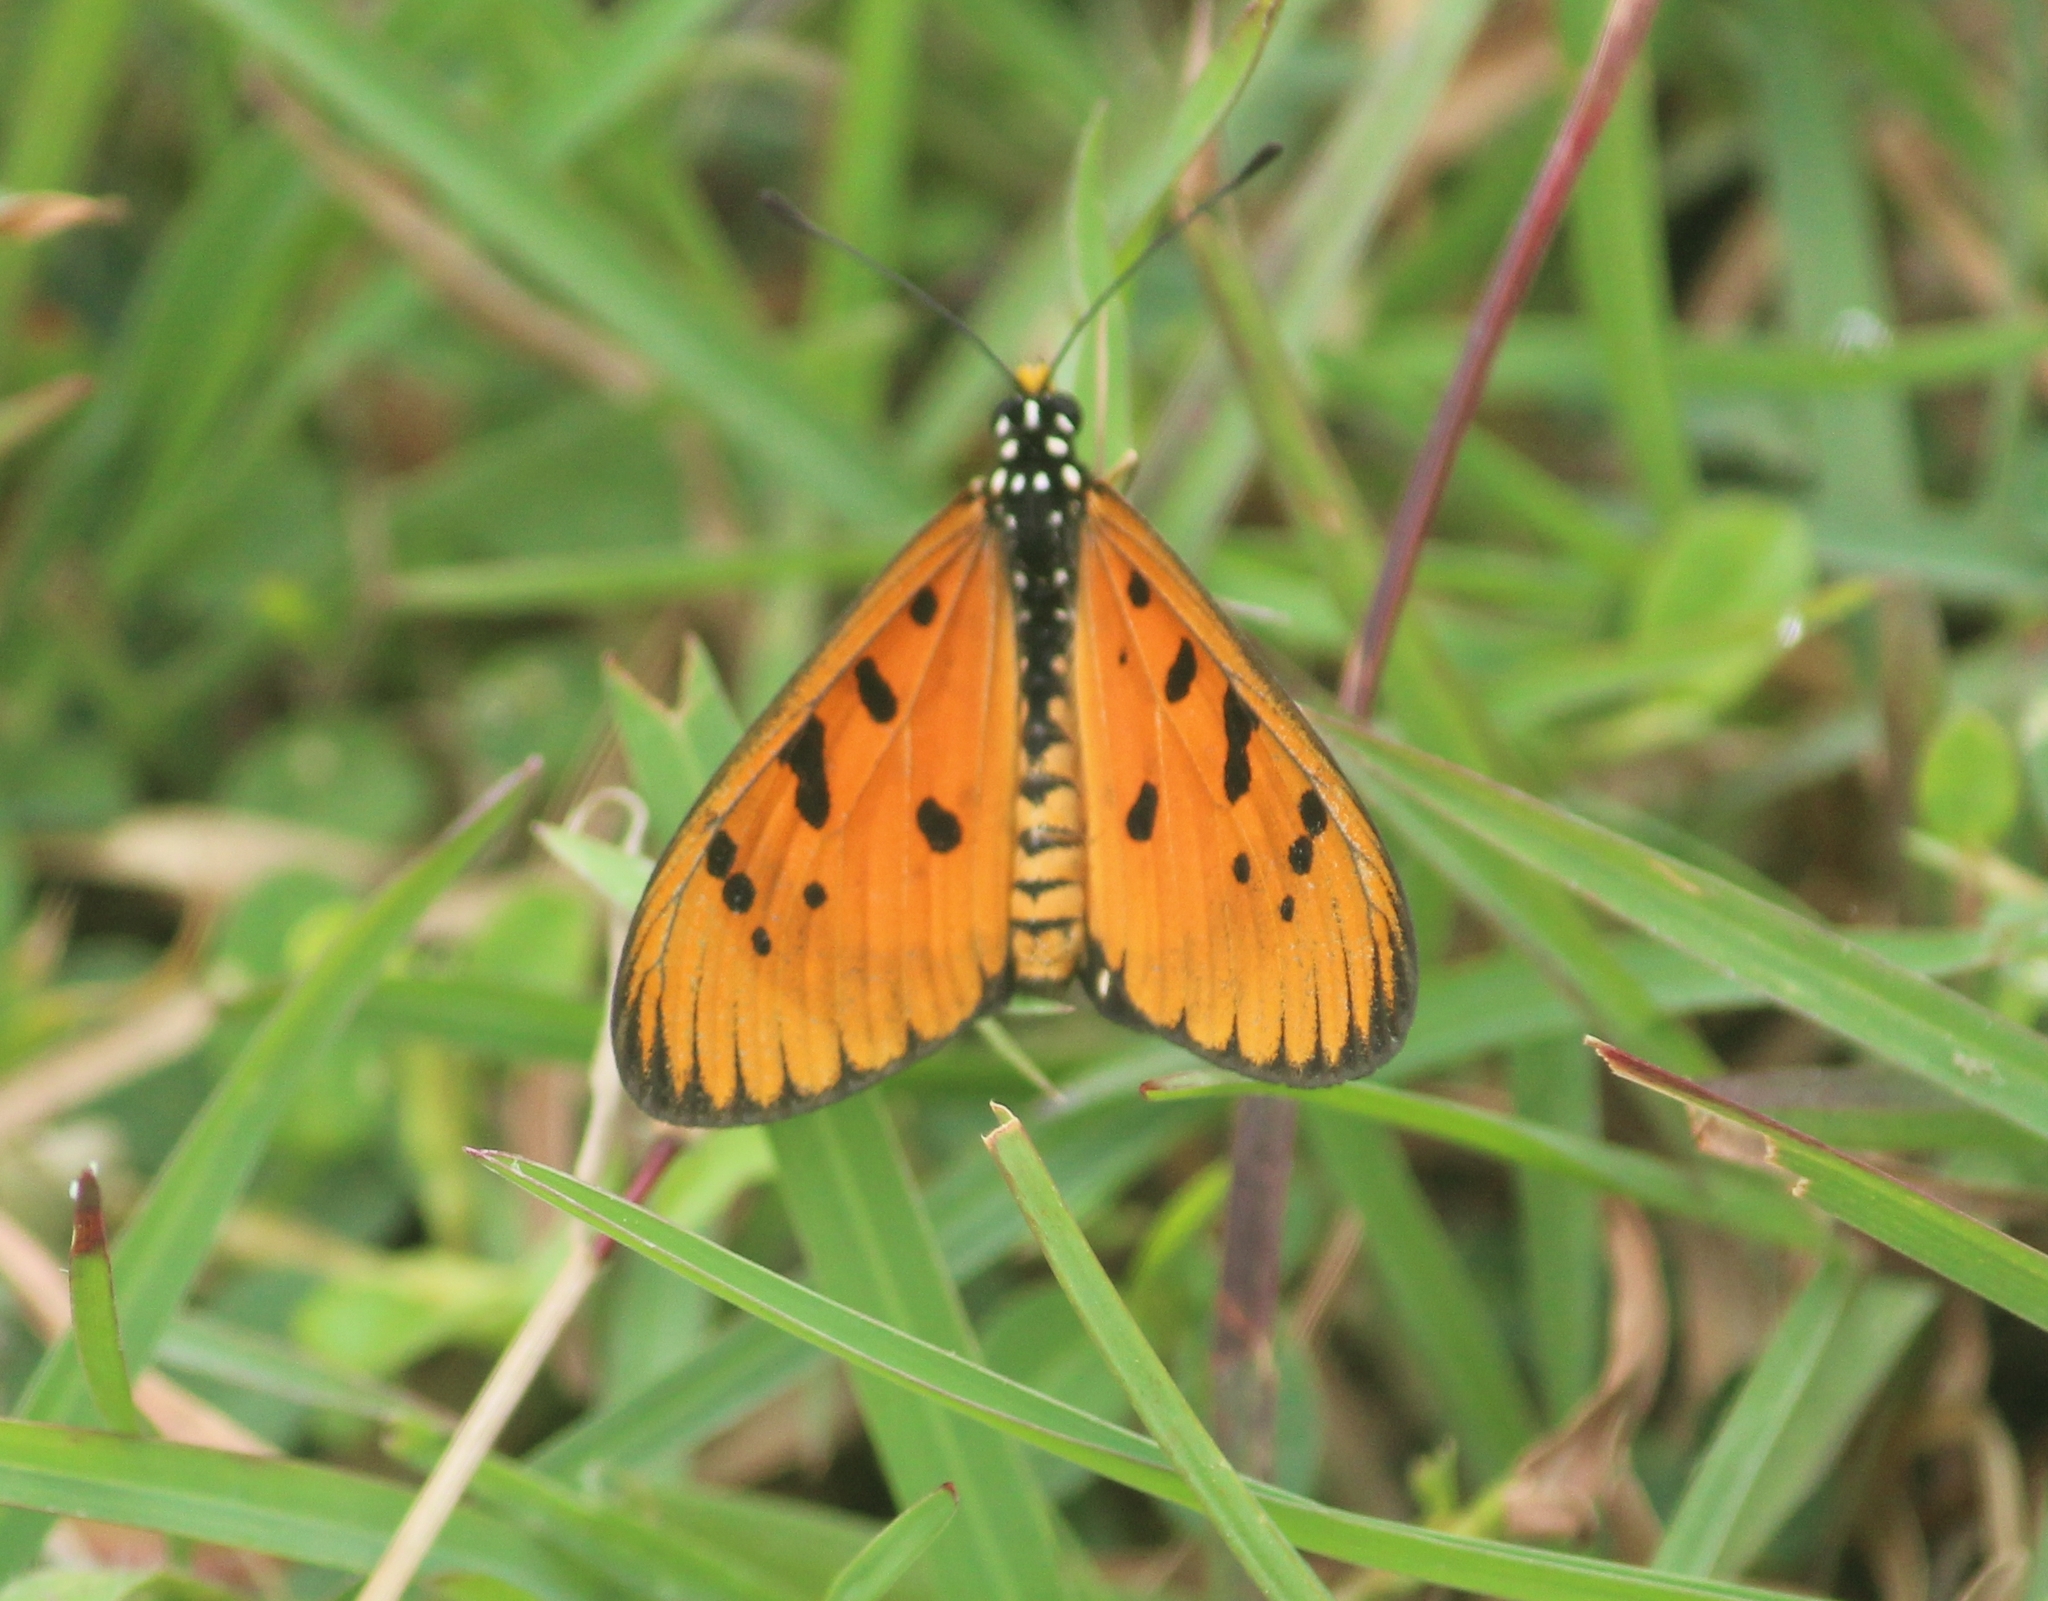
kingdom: Animalia
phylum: Arthropoda
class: Insecta
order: Lepidoptera
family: Nymphalidae
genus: Acraea
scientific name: Acraea terpsicore
